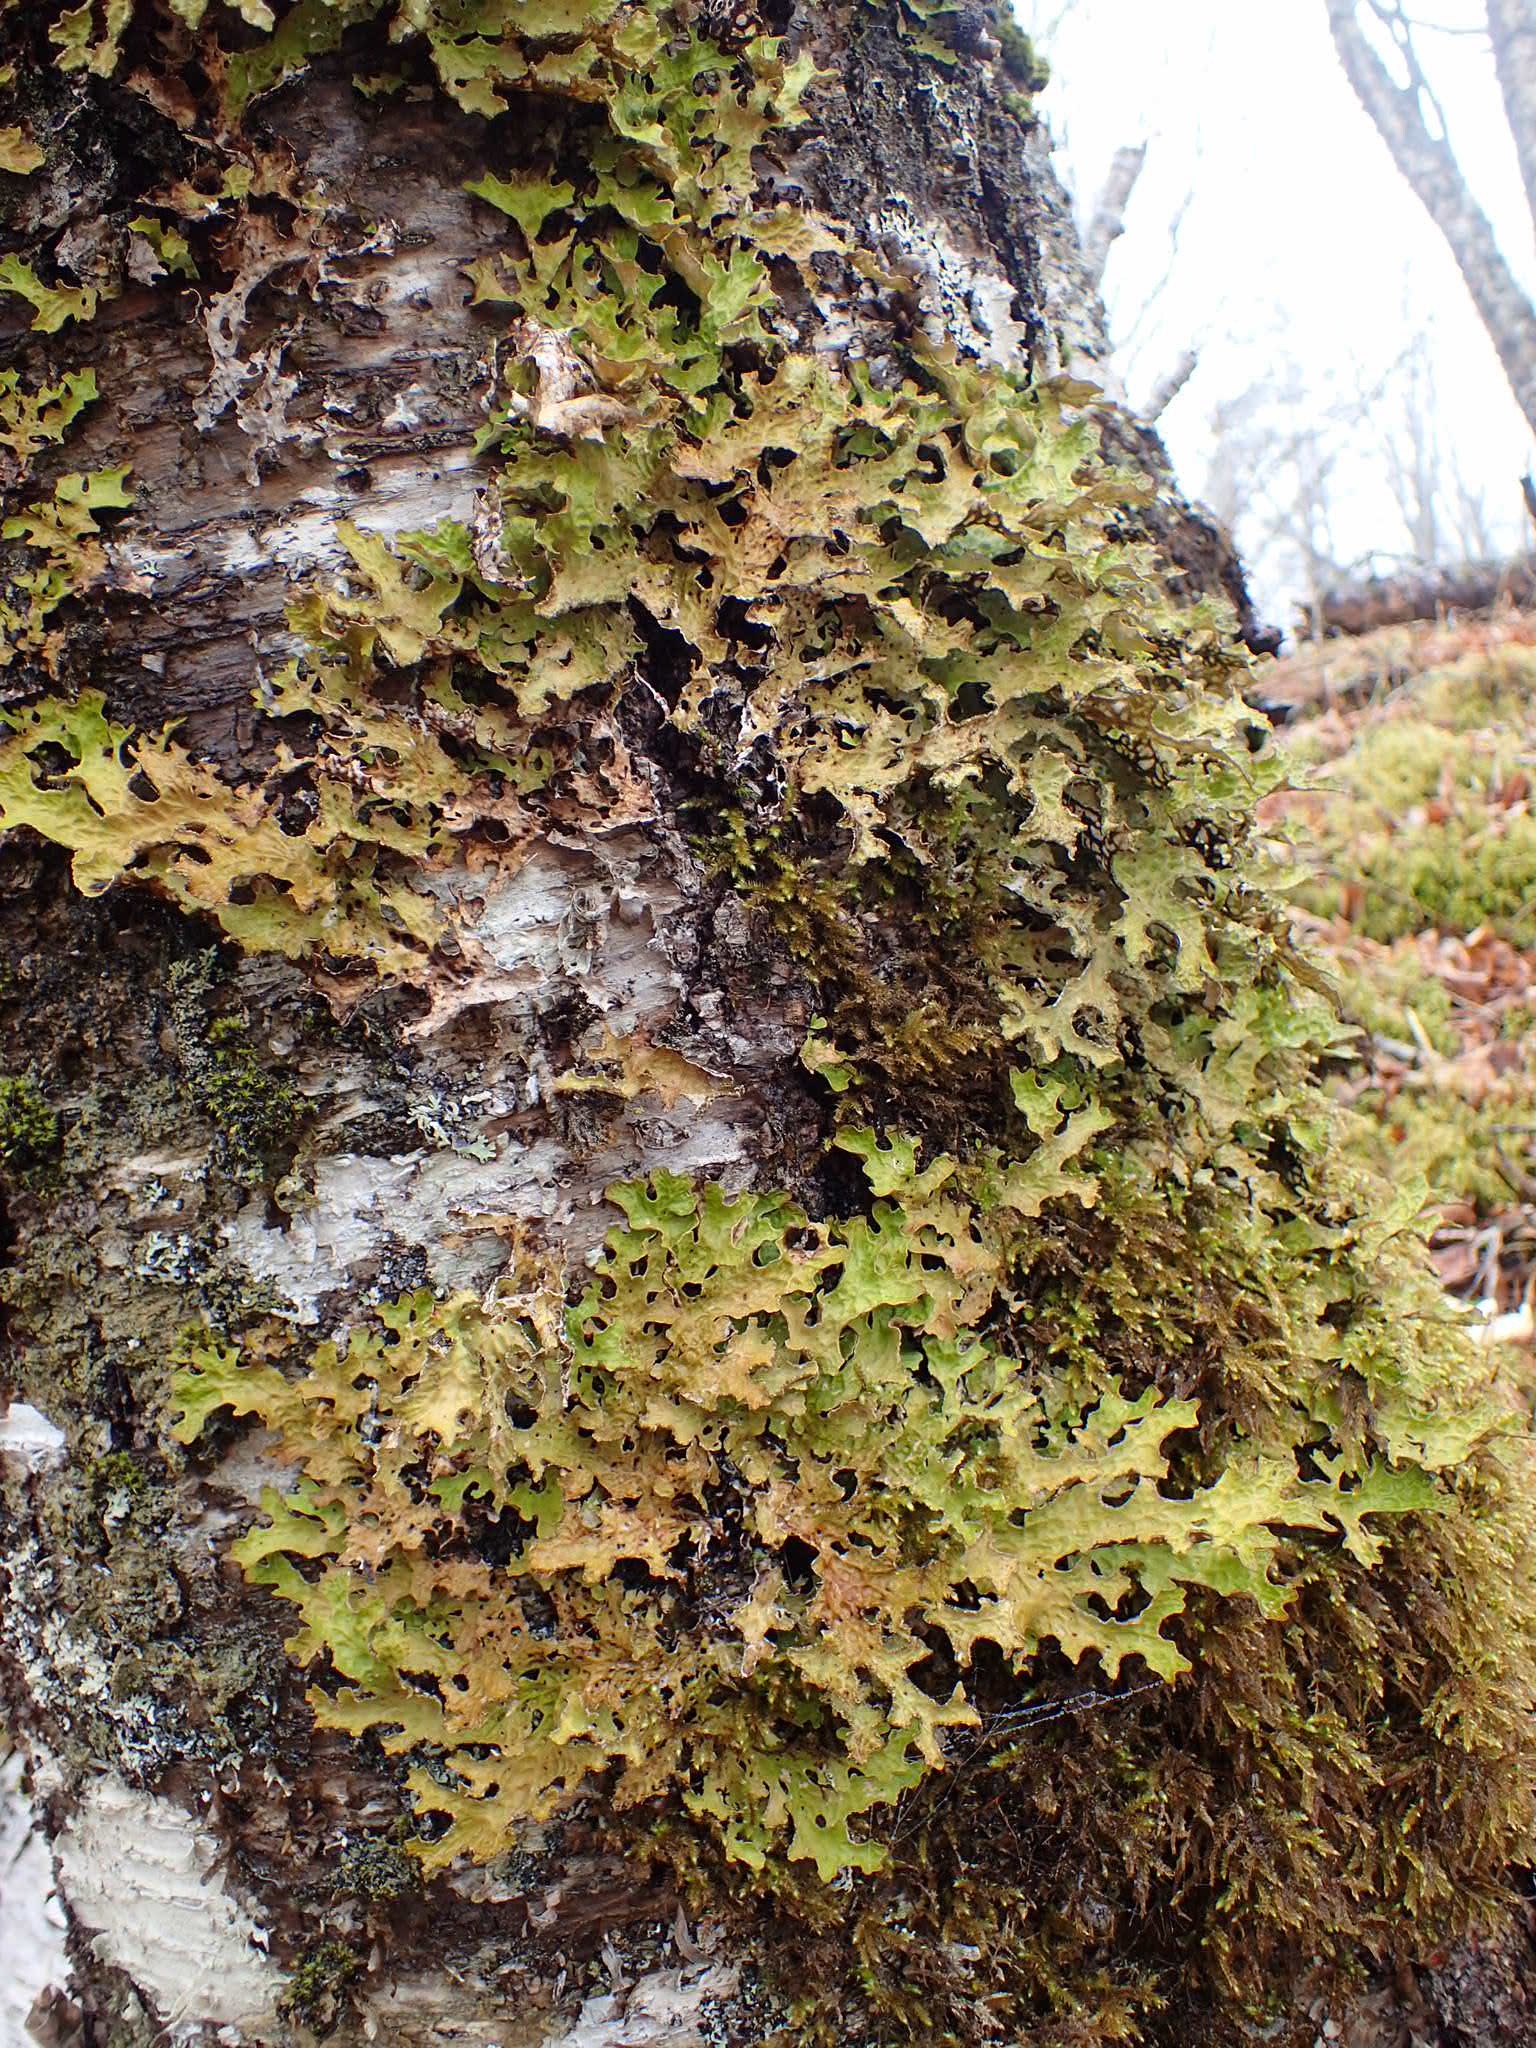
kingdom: Fungi
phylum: Ascomycota
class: Lecanoromycetes
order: Peltigerales
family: Lobariaceae
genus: Lobaria
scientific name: Lobaria pulmonaria
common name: Lungwort
